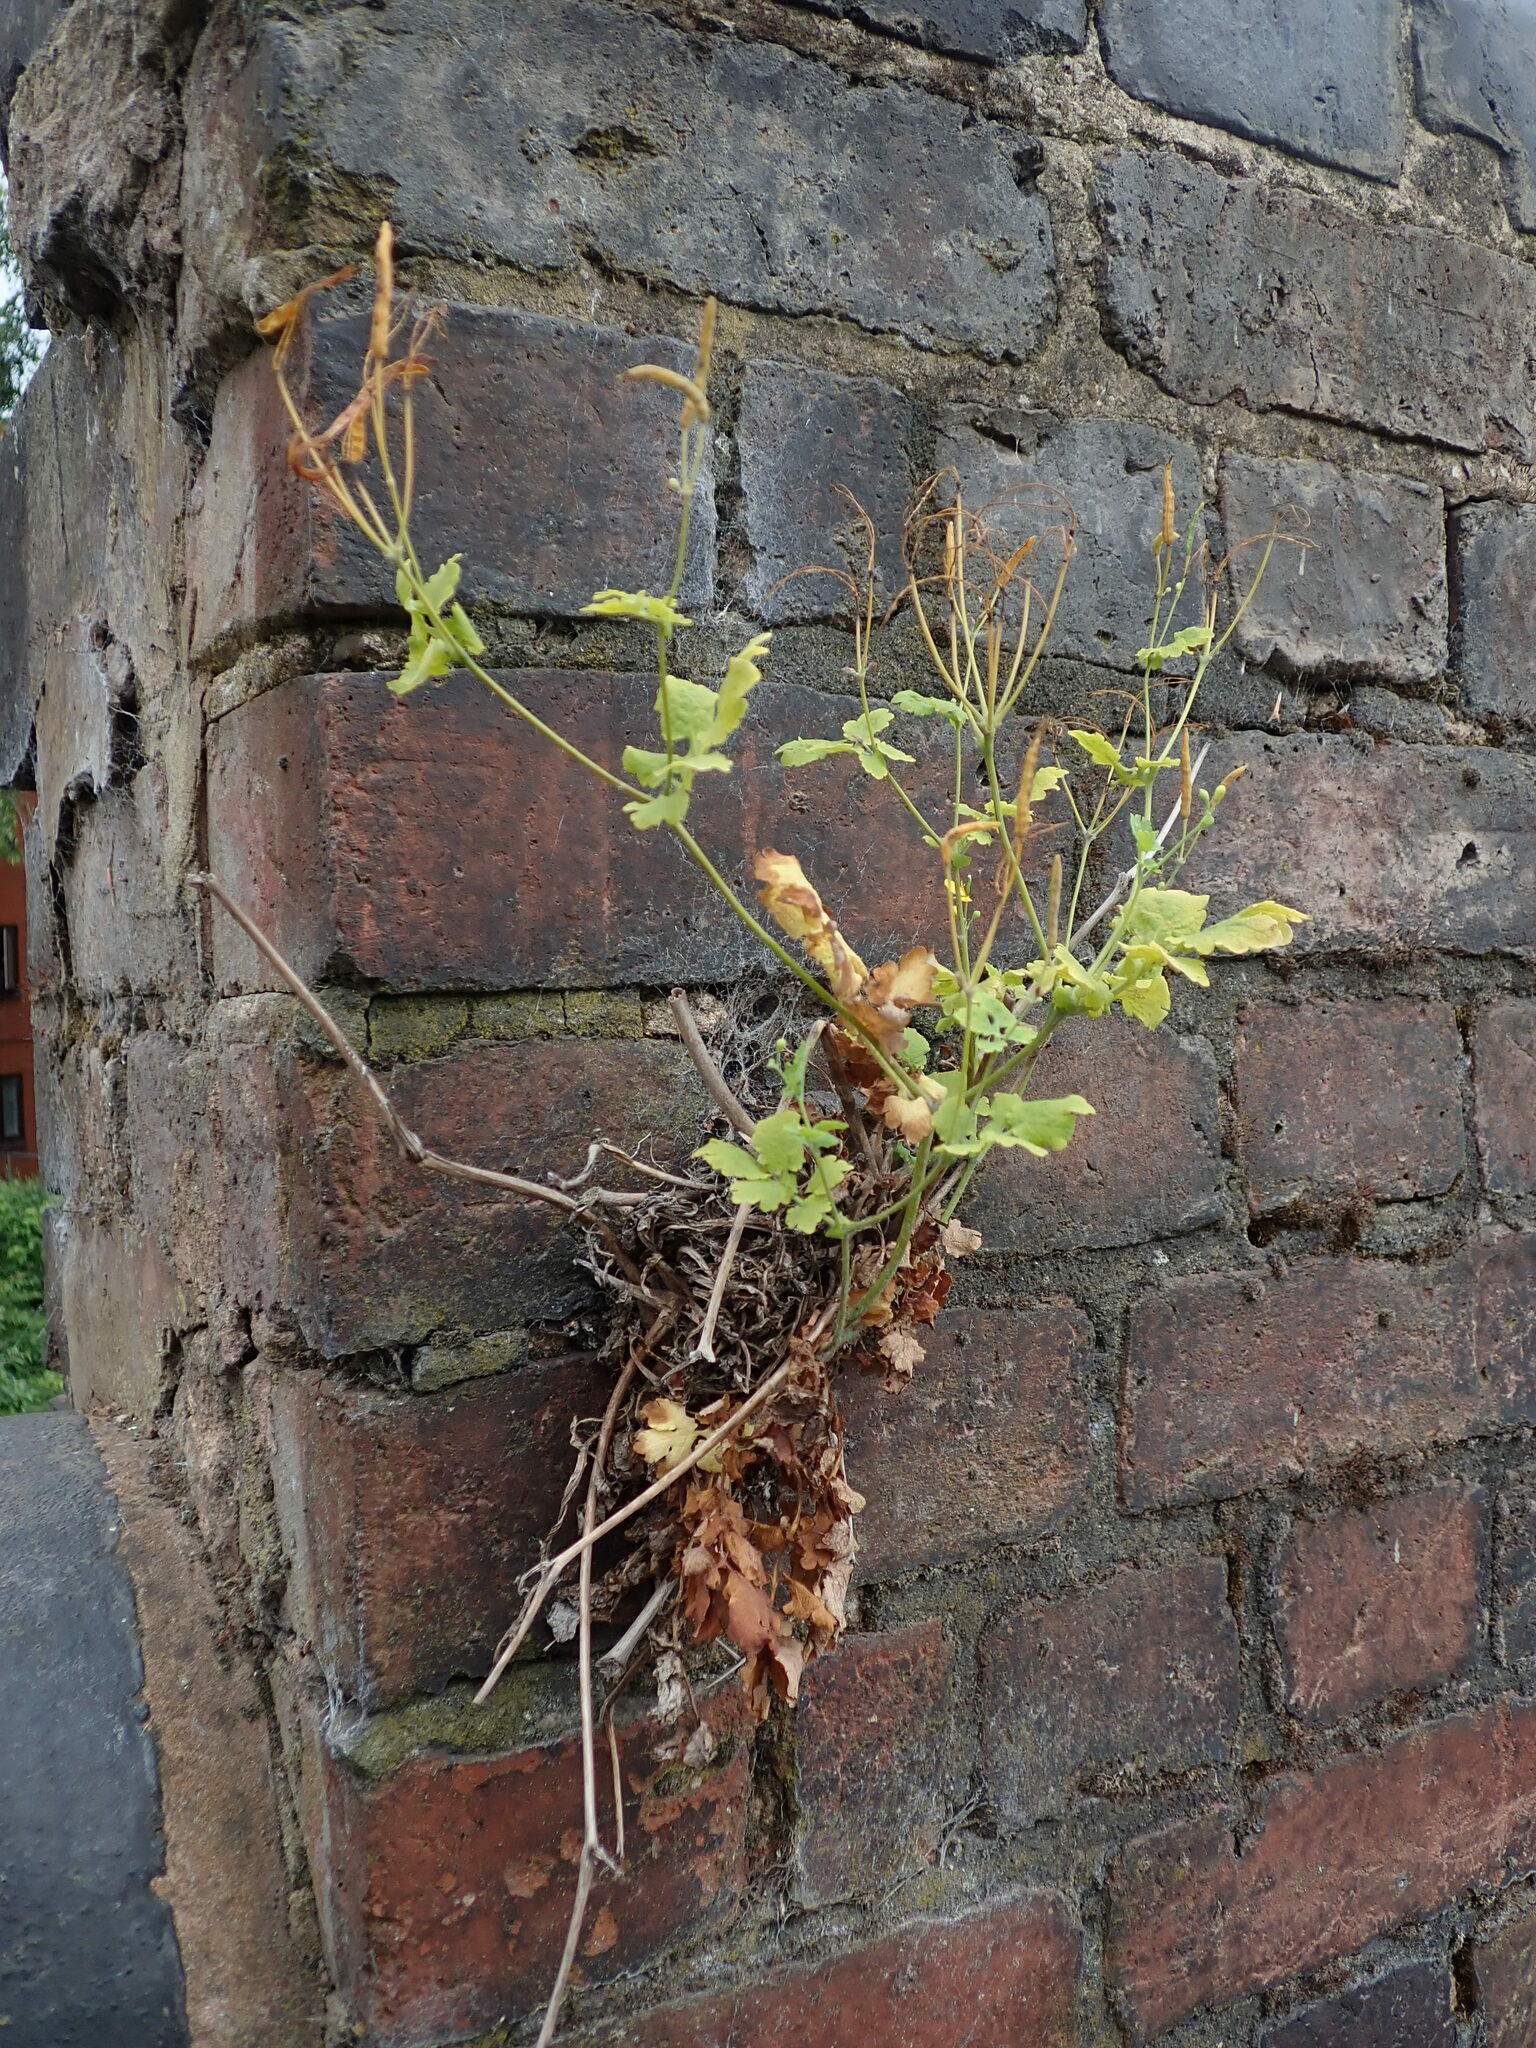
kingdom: Plantae
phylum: Tracheophyta
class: Magnoliopsida
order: Ranunculales
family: Papaveraceae
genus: Chelidonium
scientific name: Chelidonium majus
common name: Greater celandine
